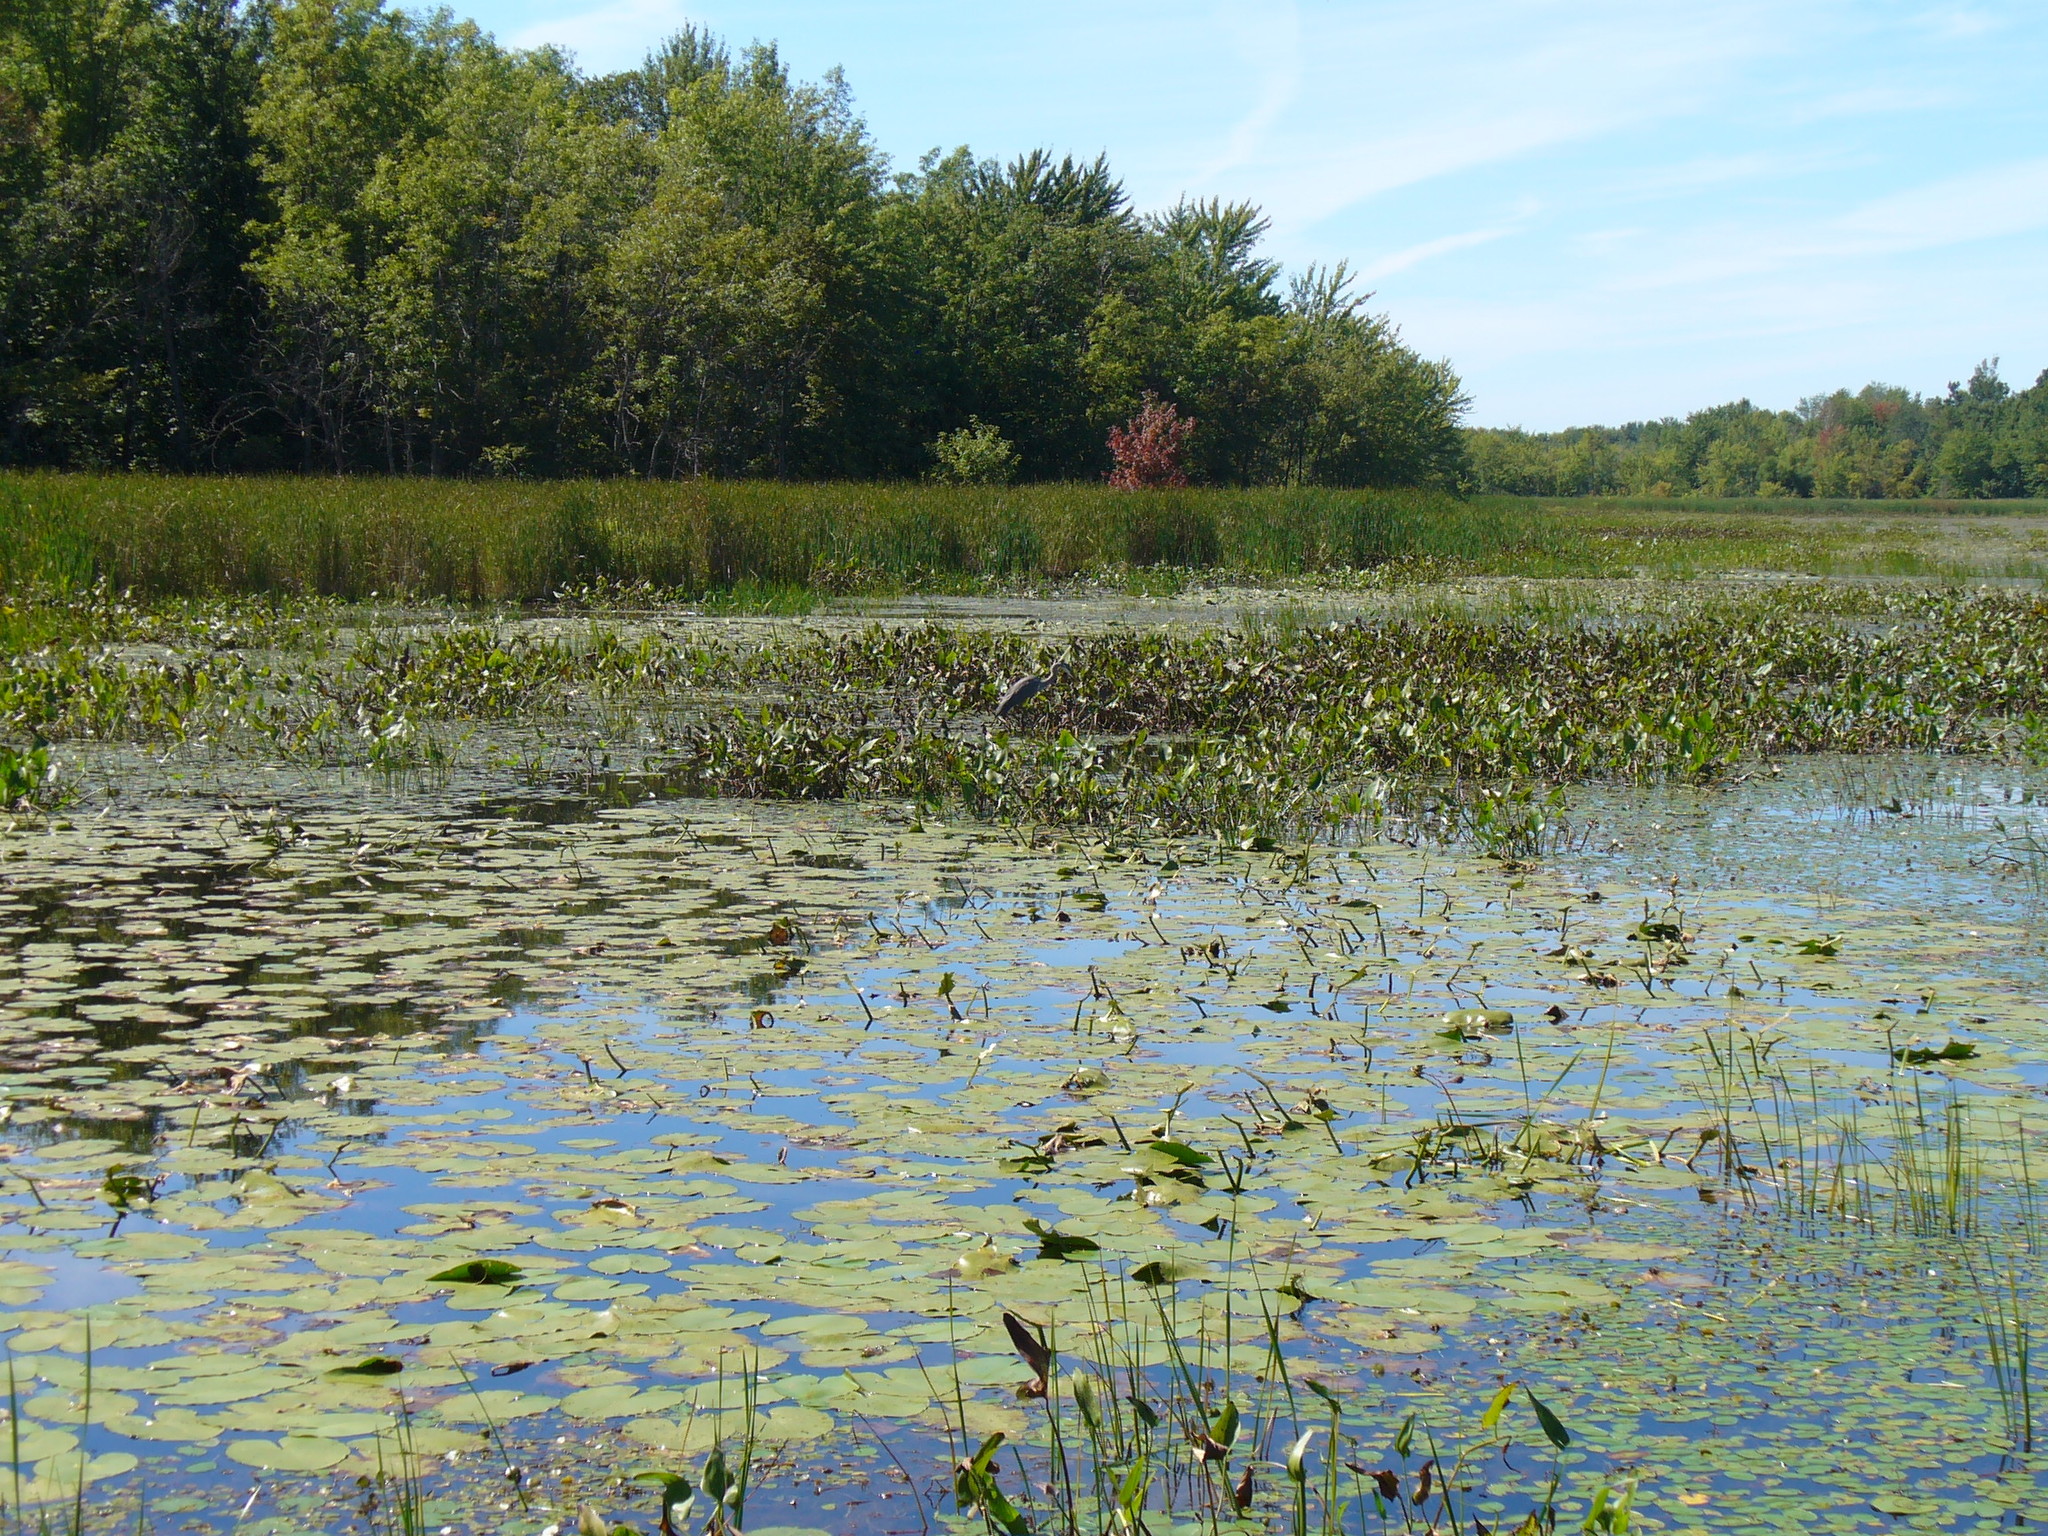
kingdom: Animalia
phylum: Chordata
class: Aves
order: Pelecaniformes
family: Ardeidae
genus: Ardea
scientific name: Ardea herodias
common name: Great blue heron
